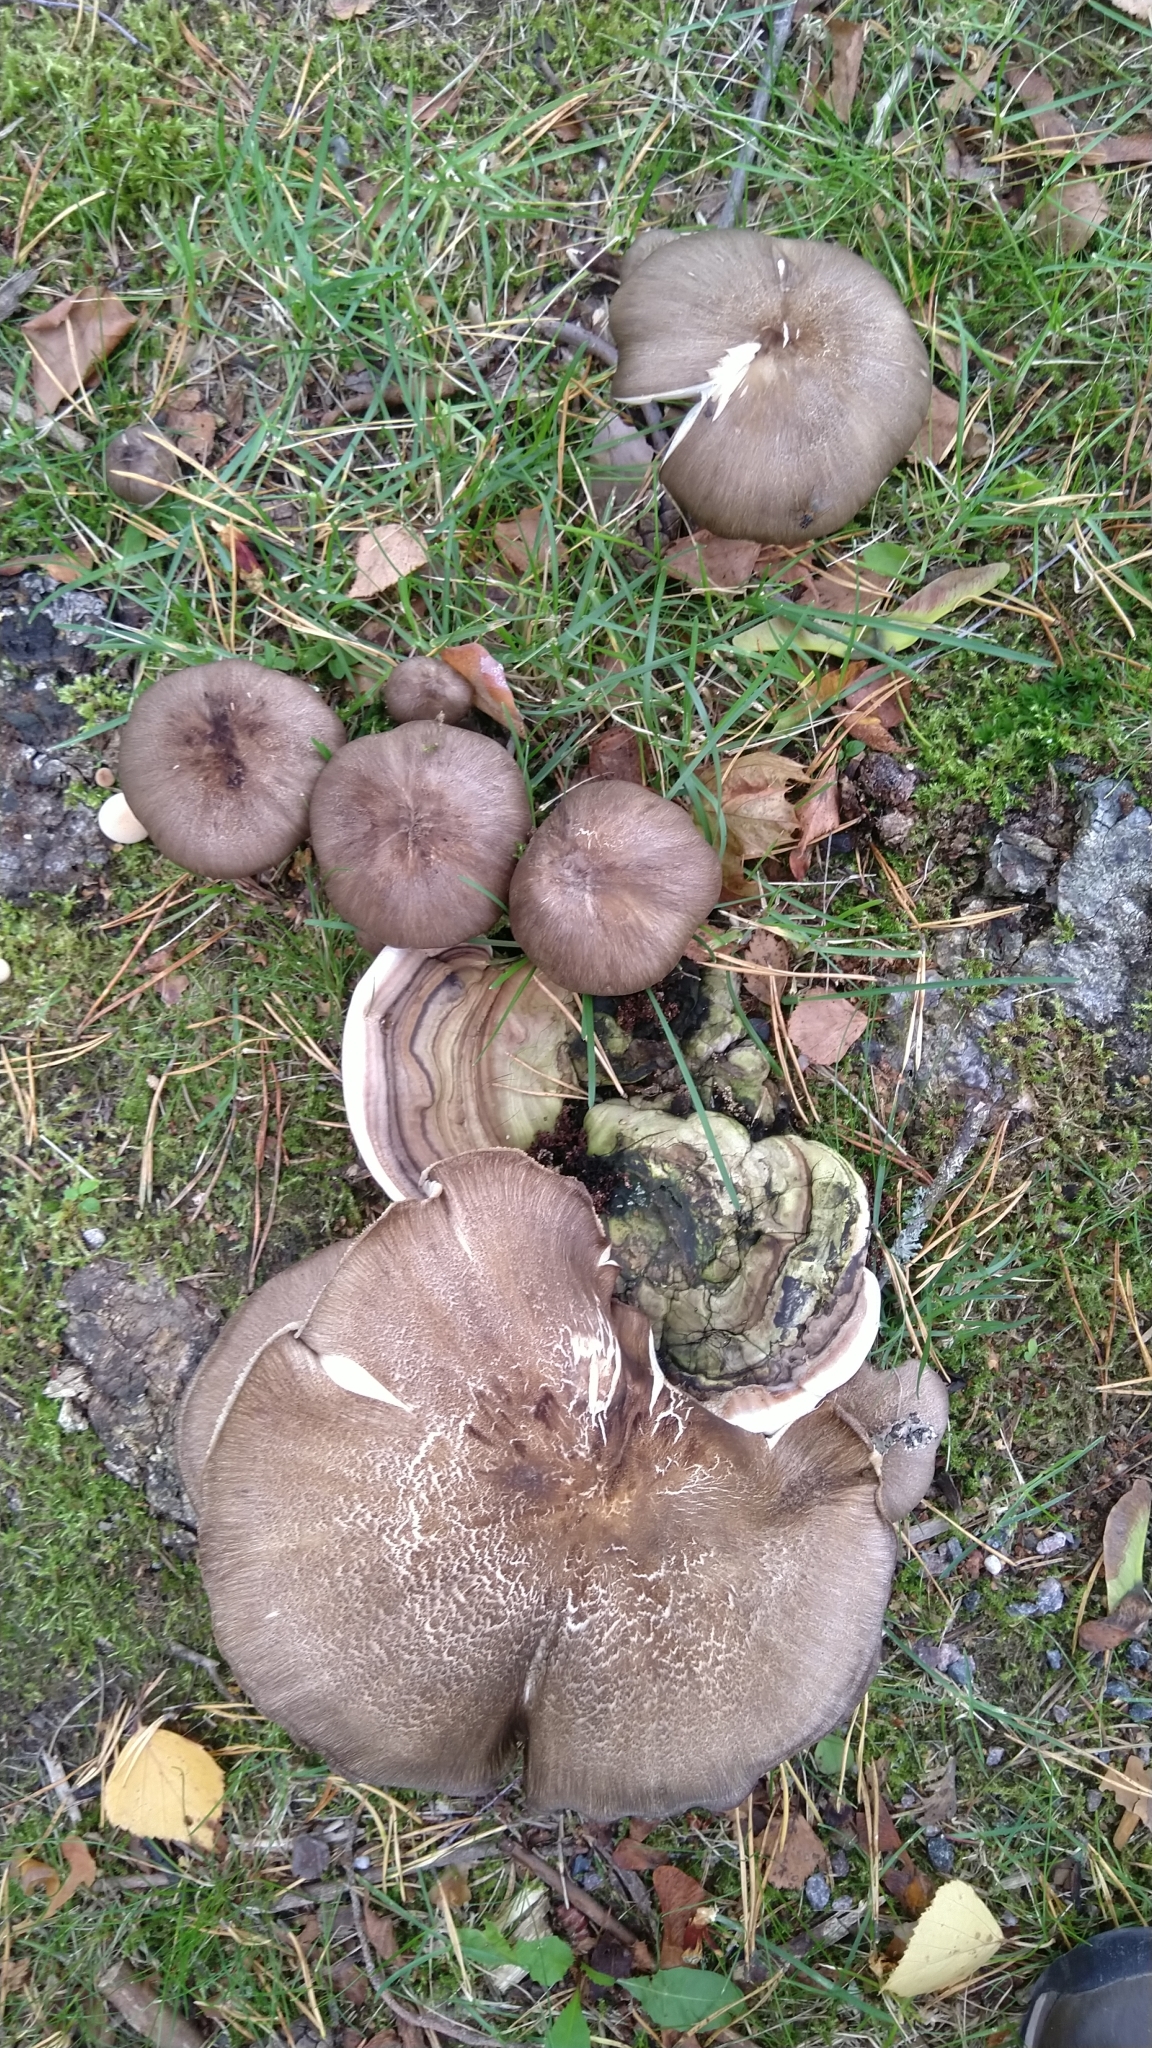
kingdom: Fungi
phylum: Basidiomycota
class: Agaricomycetes
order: Agaricales
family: Tricholomataceae
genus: Megacollybia
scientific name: Megacollybia platyphylla
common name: Whitelaced shank
